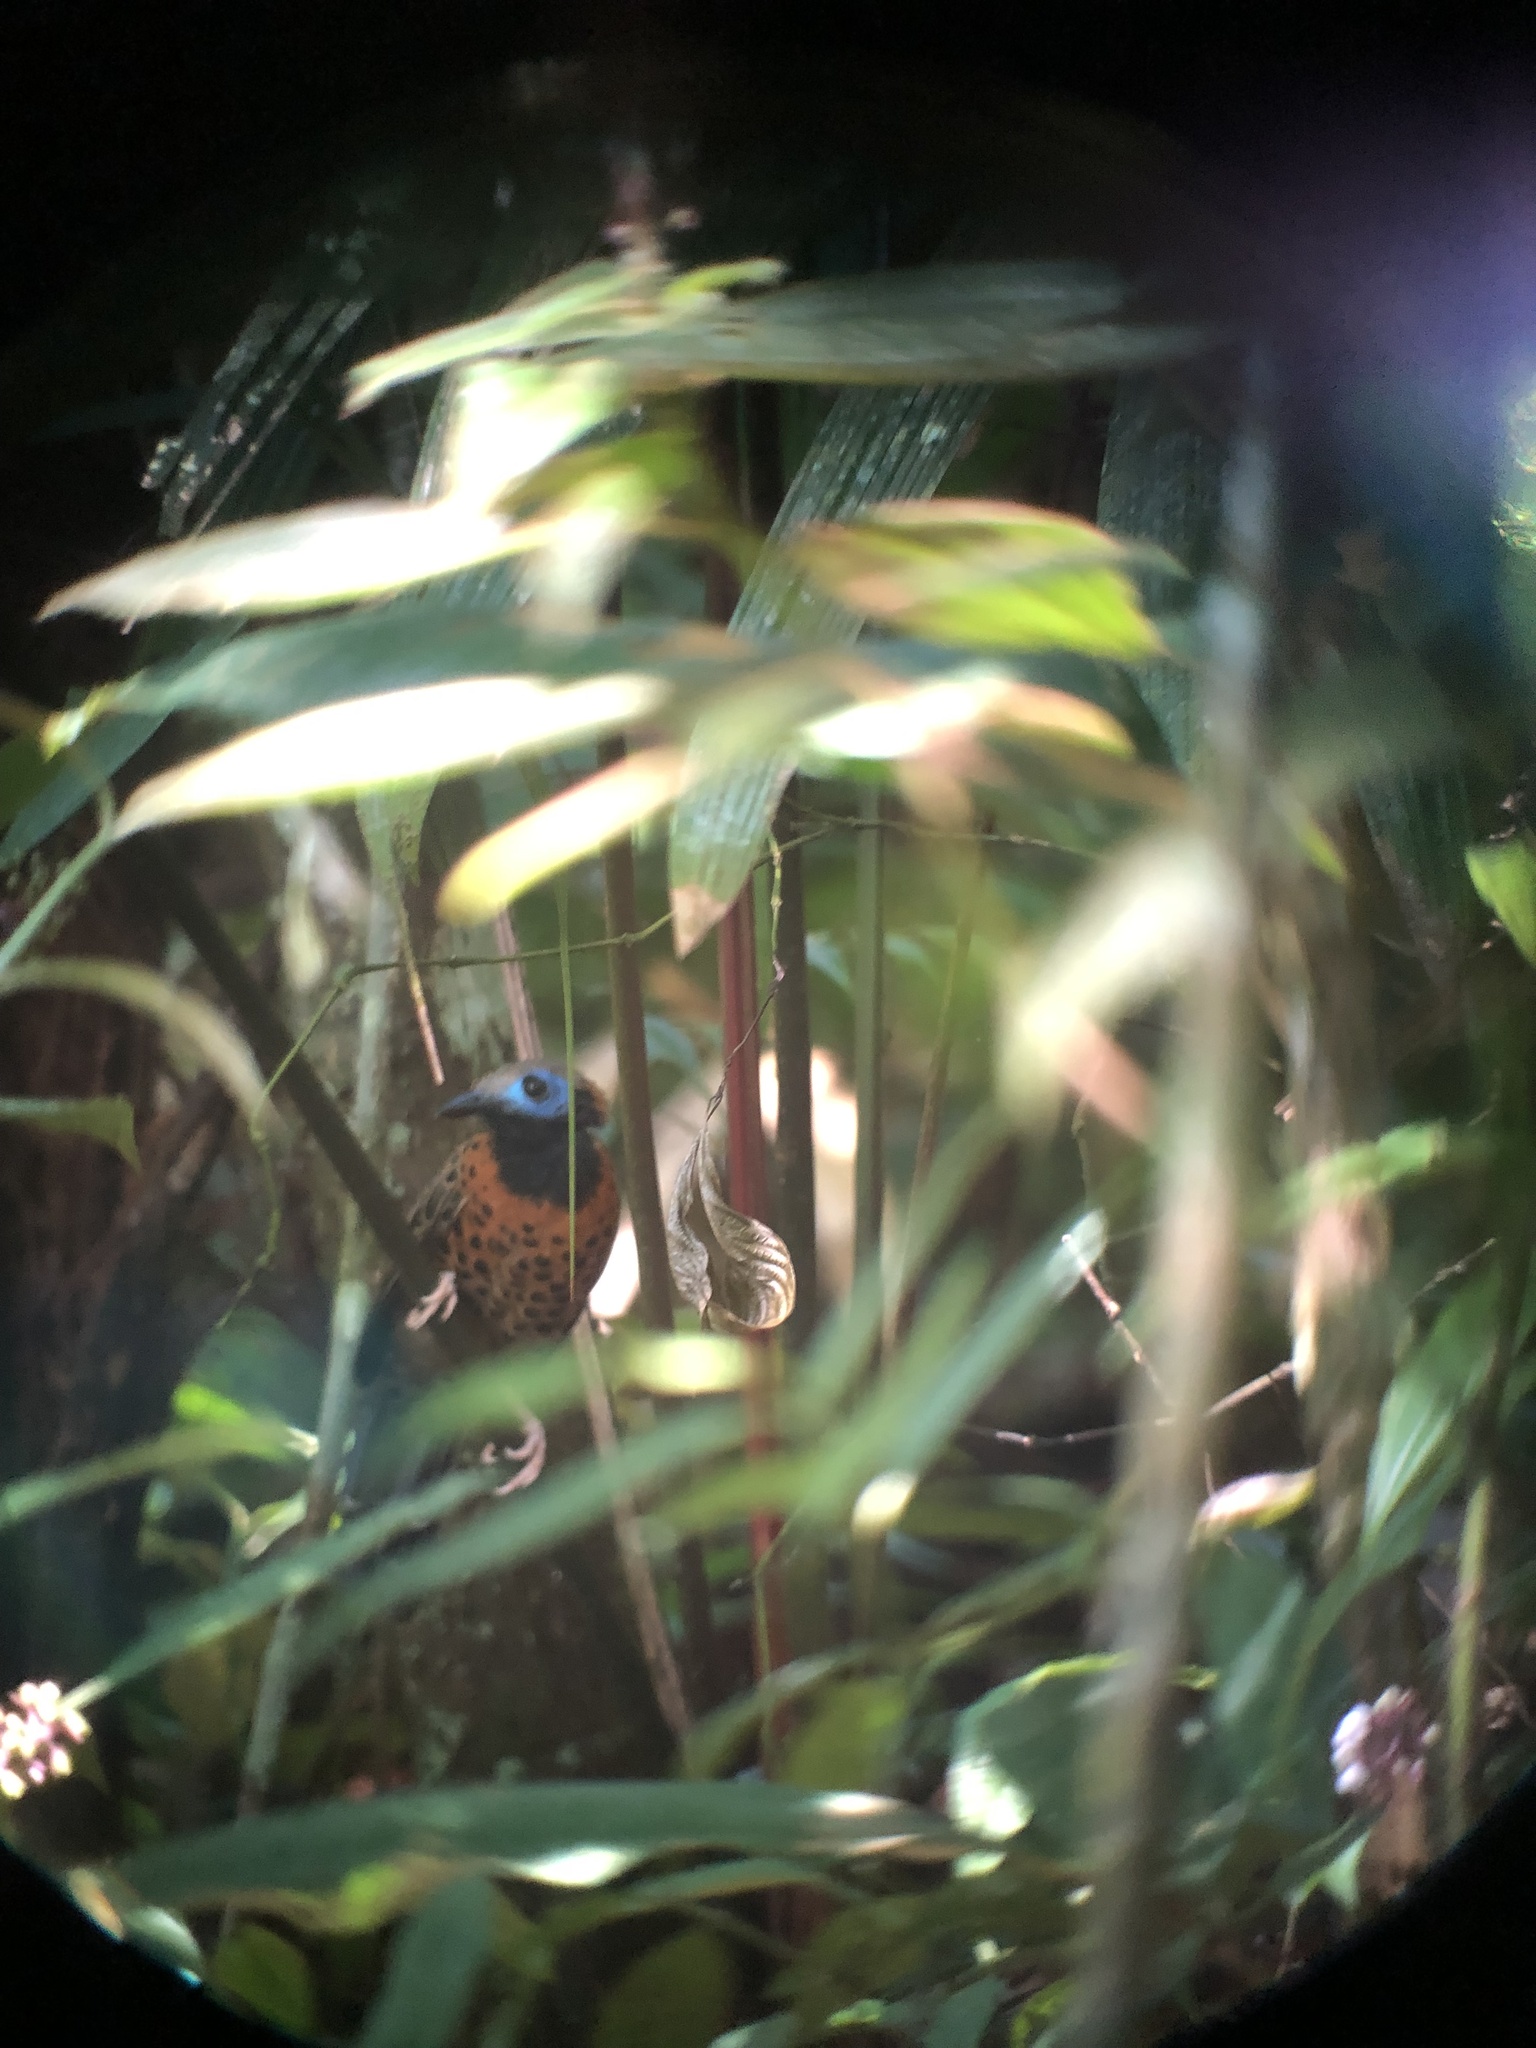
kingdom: Animalia
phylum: Chordata
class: Aves
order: Passeriformes
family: Thamnophilidae
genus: Phaenostictus
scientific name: Phaenostictus mcleannani
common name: Ocellated antbird
